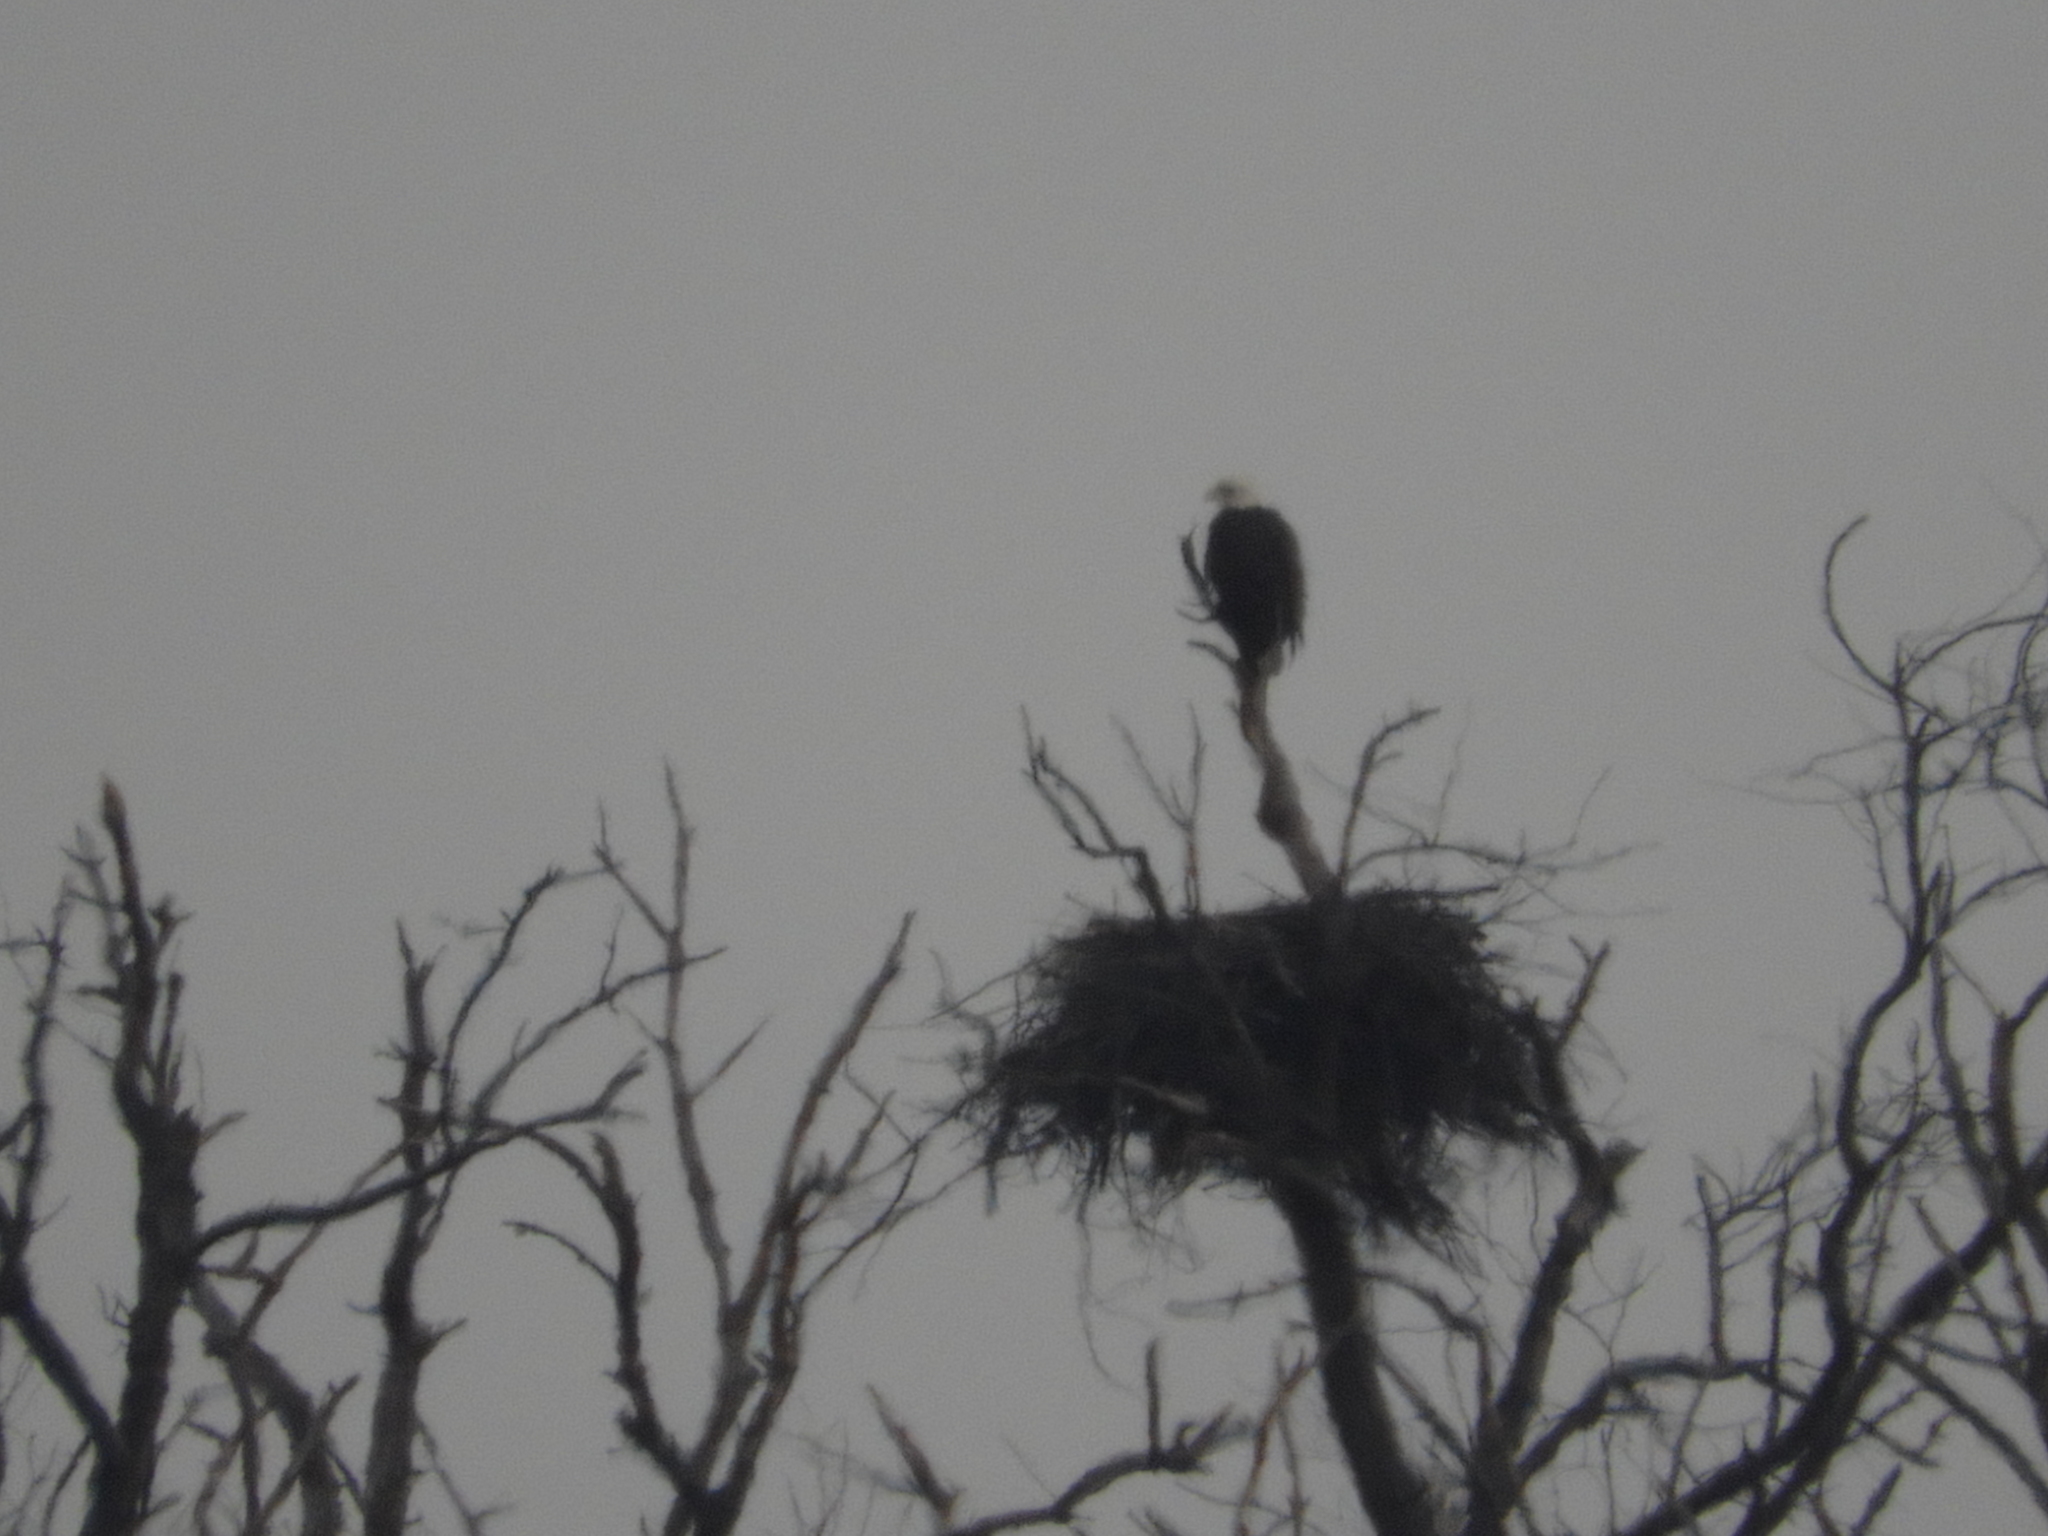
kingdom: Animalia
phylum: Chordata
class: Aves
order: Accipitriformes
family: Accipitridae
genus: Haliaeetus
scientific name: Haliaeetus leucocephalus
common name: Bald eagle
